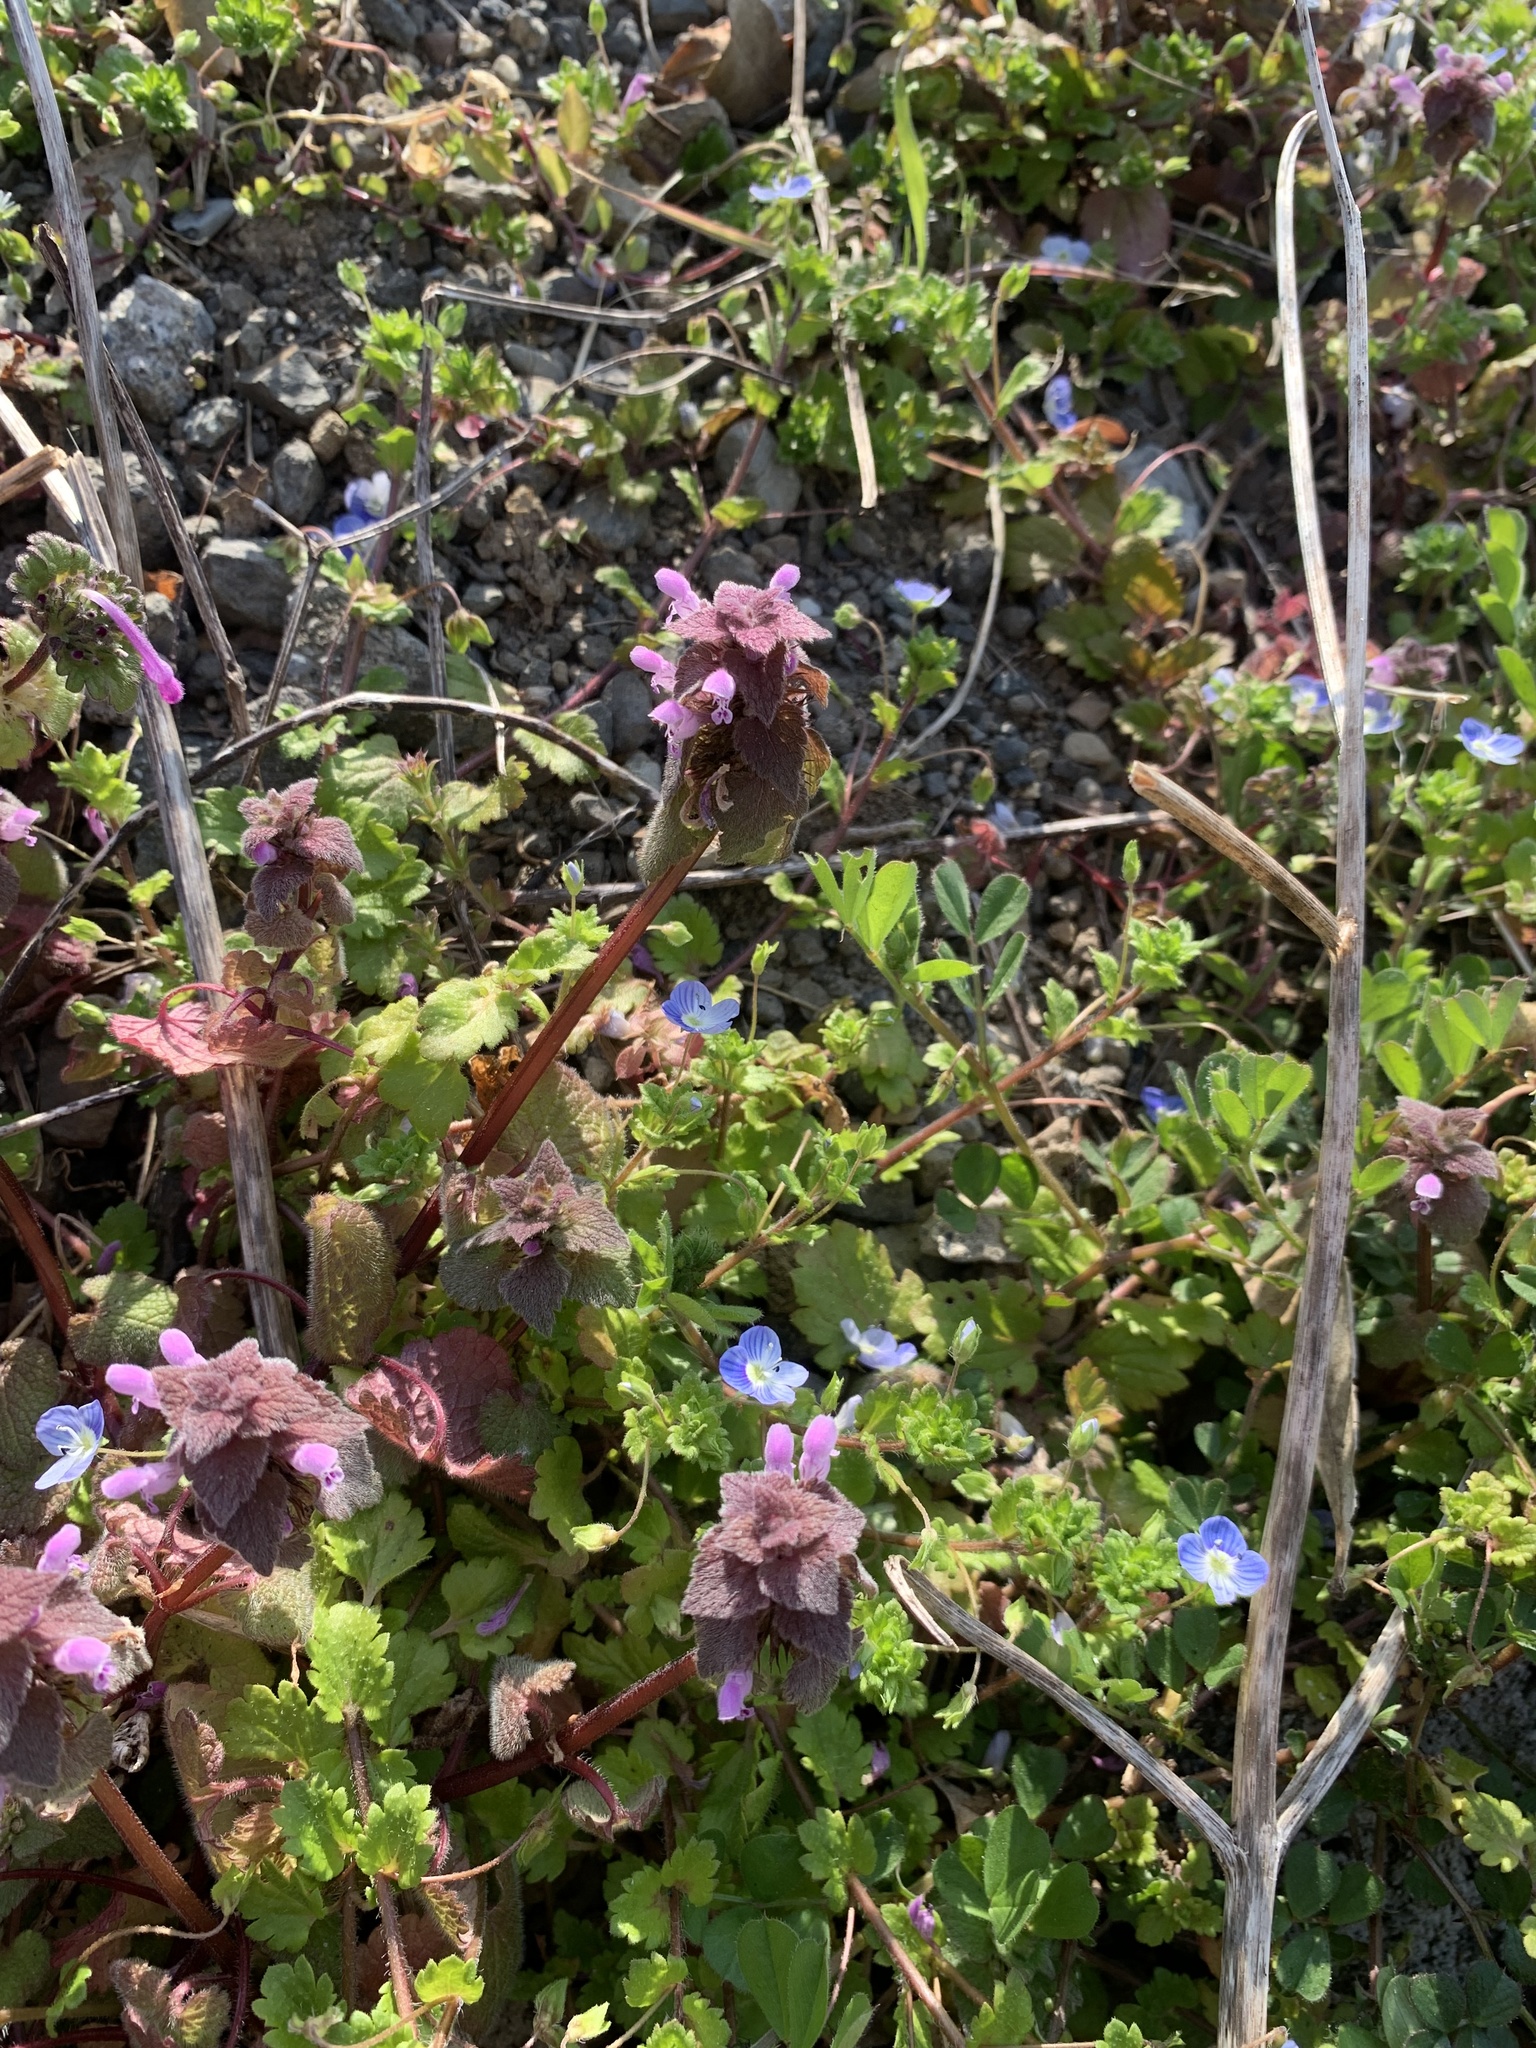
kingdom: Plantae
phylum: Tracheophyta
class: Magnoliopsida
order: Lamiales
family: Lamiaceae
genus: Lamium
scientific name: Lamium purpureum
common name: Red dead-nettle
